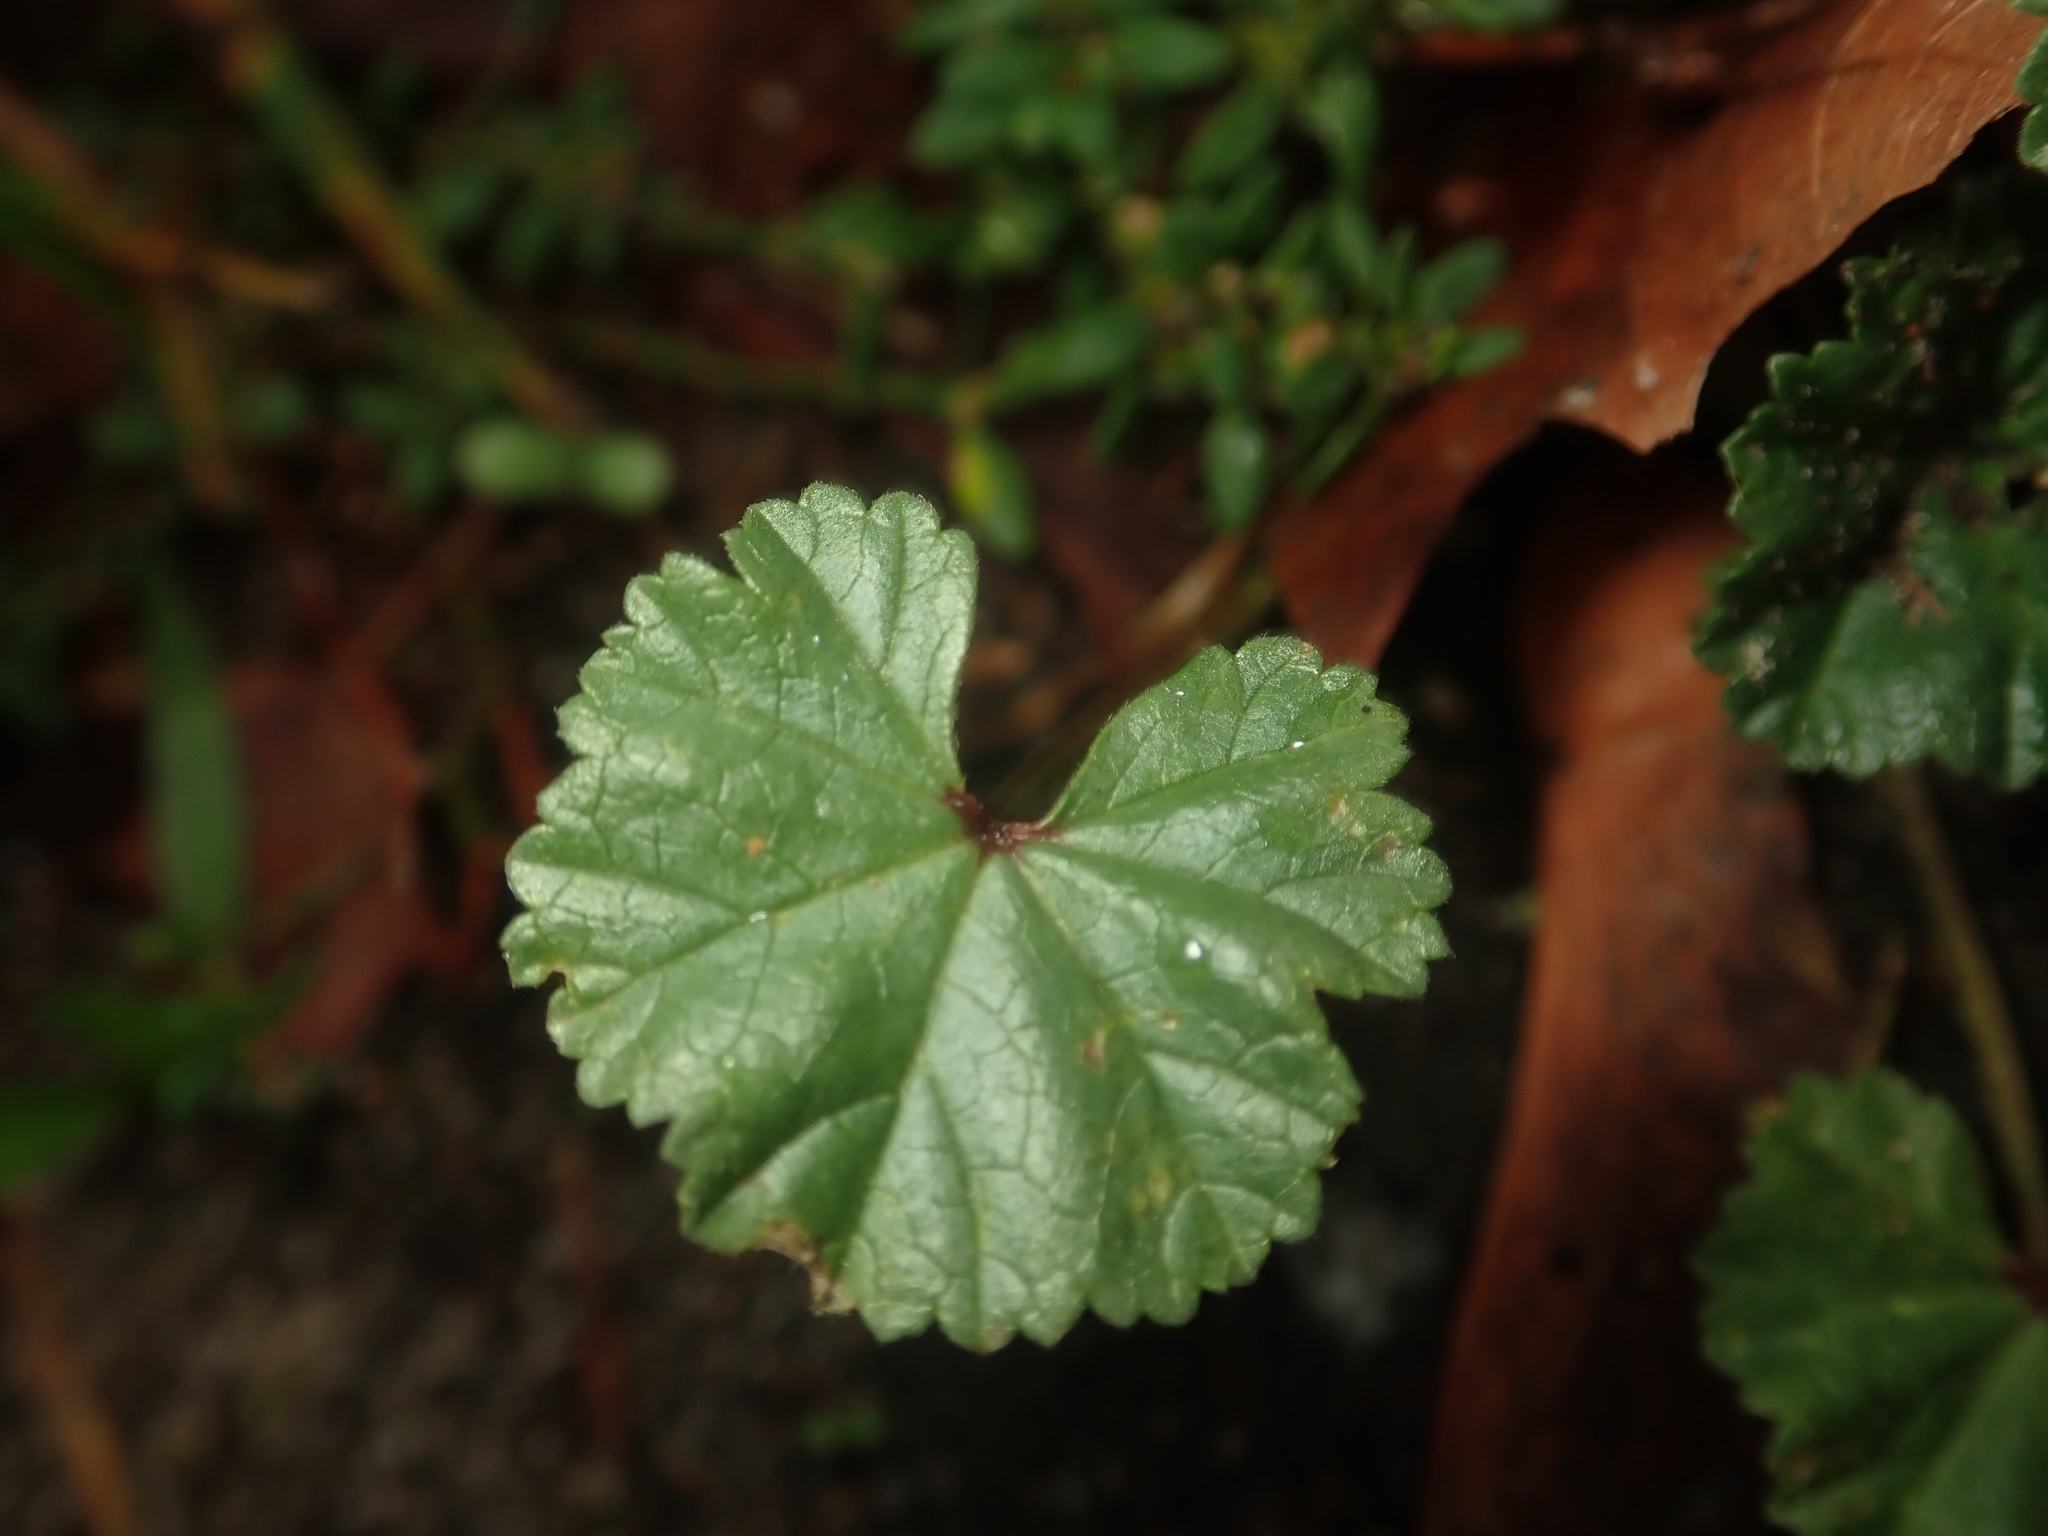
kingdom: Plantae
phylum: Tracheophyta
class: Magnoliopsida
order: Malvales
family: Malvaceae
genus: Malva
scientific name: Malva neglecta
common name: Common mallow
